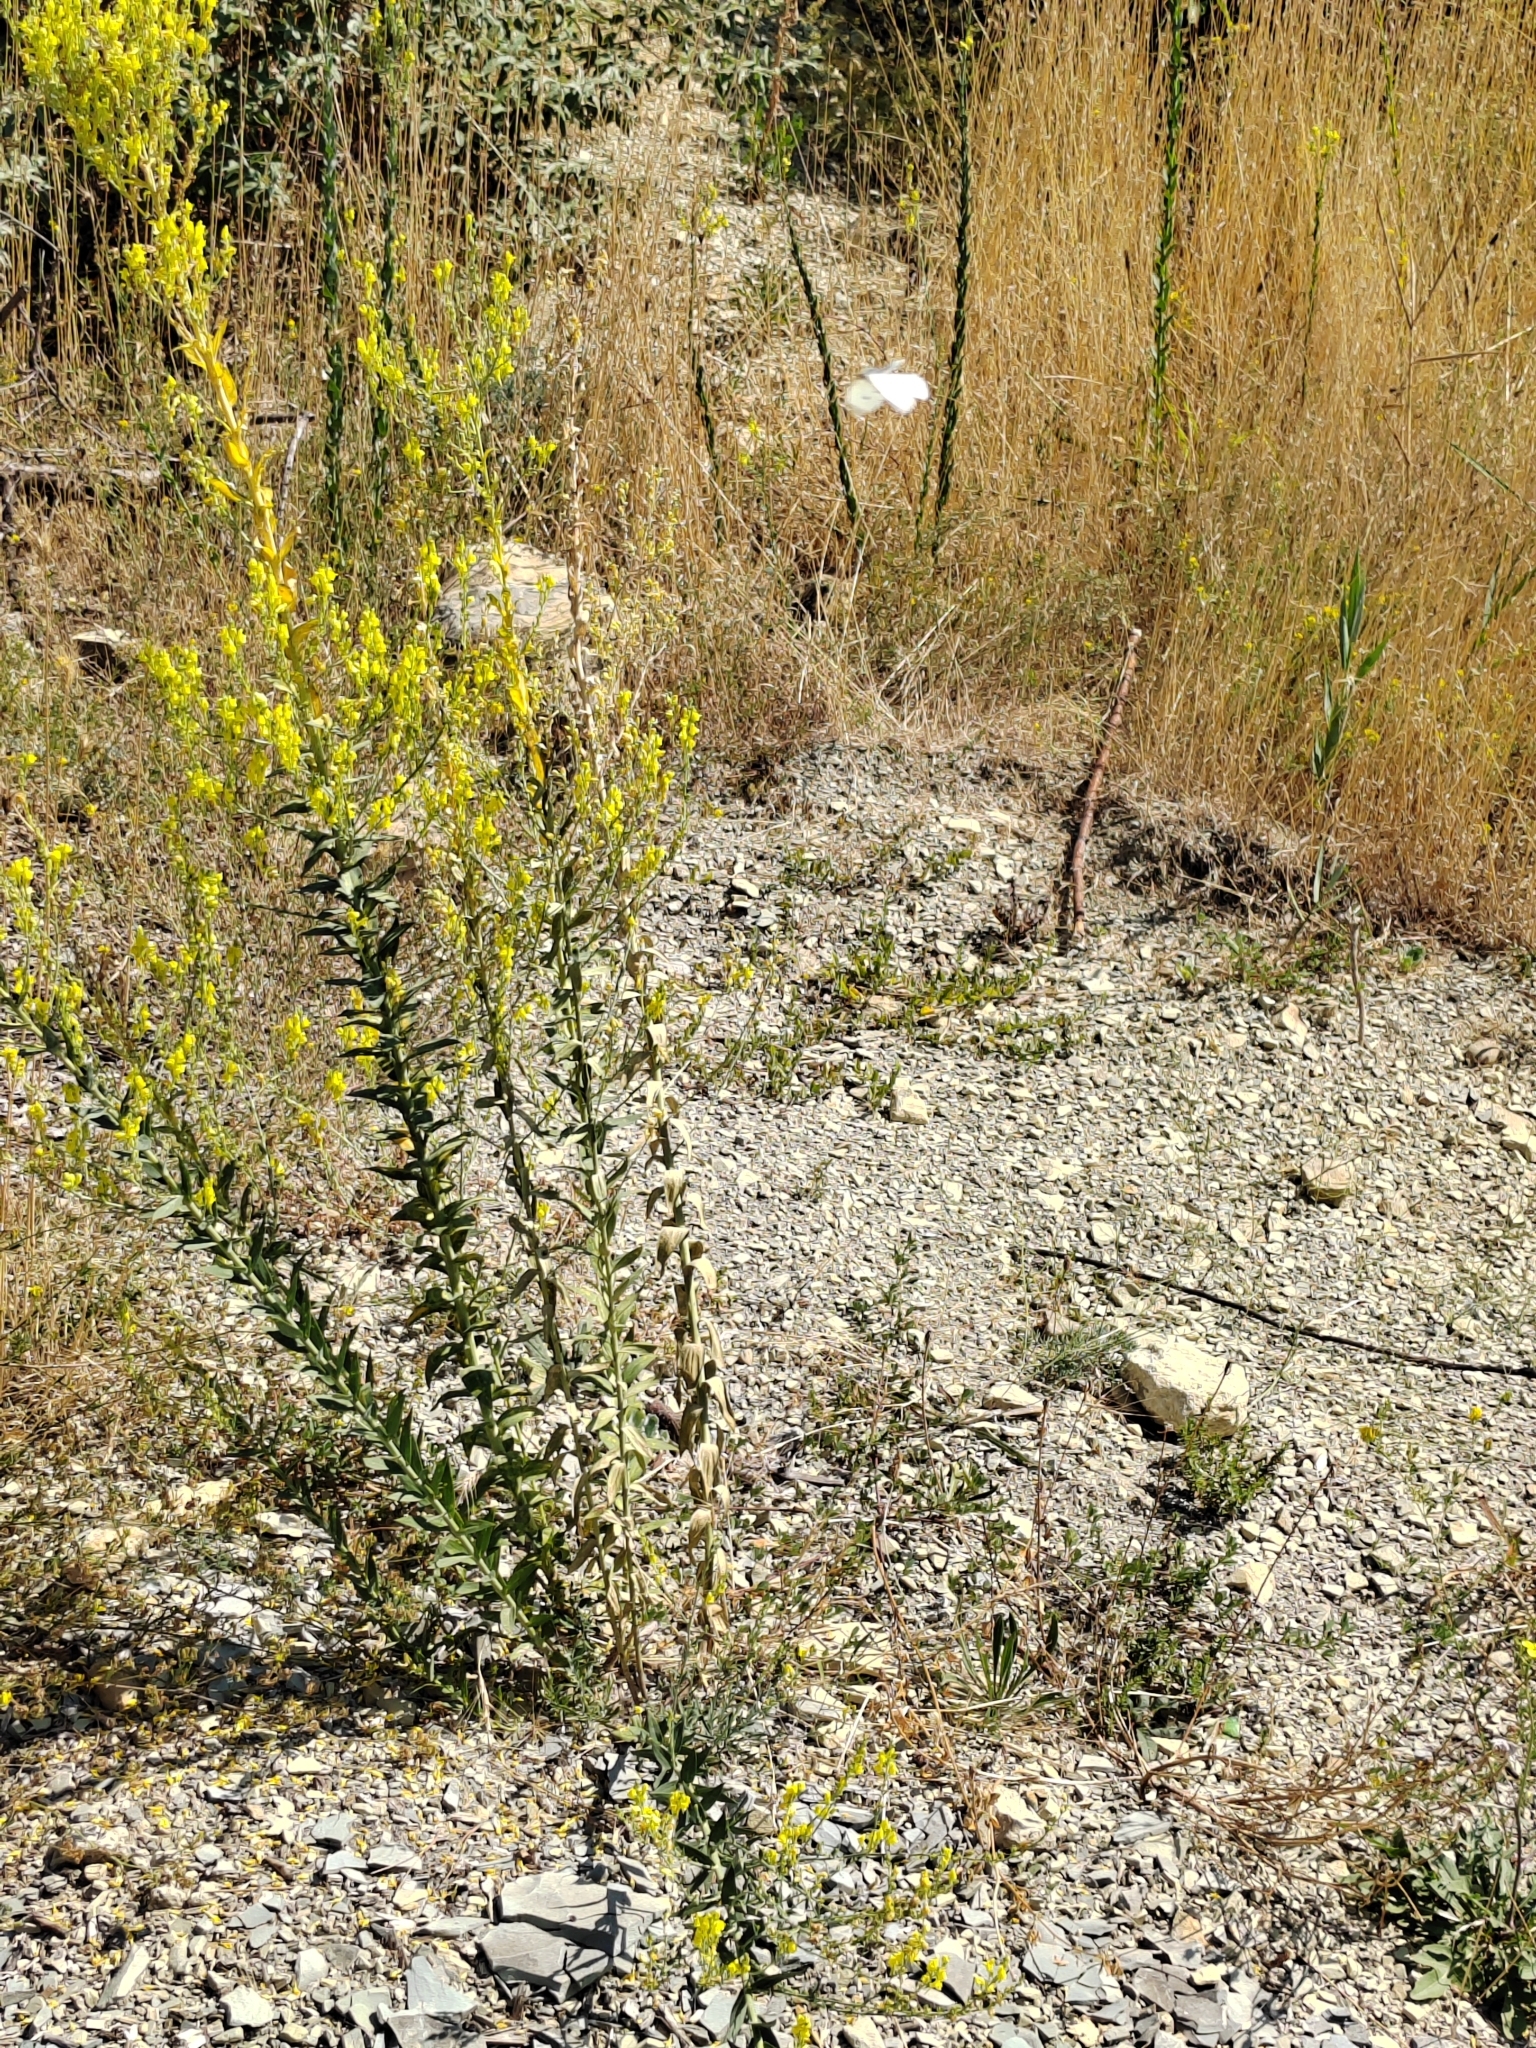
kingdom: Plantae
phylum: Tracheophyta
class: Magnoliopsida
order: Lamiales
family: Plantaginaceae
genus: Linaria
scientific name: Linaria genistifolia
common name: Broomleaf toadflax
